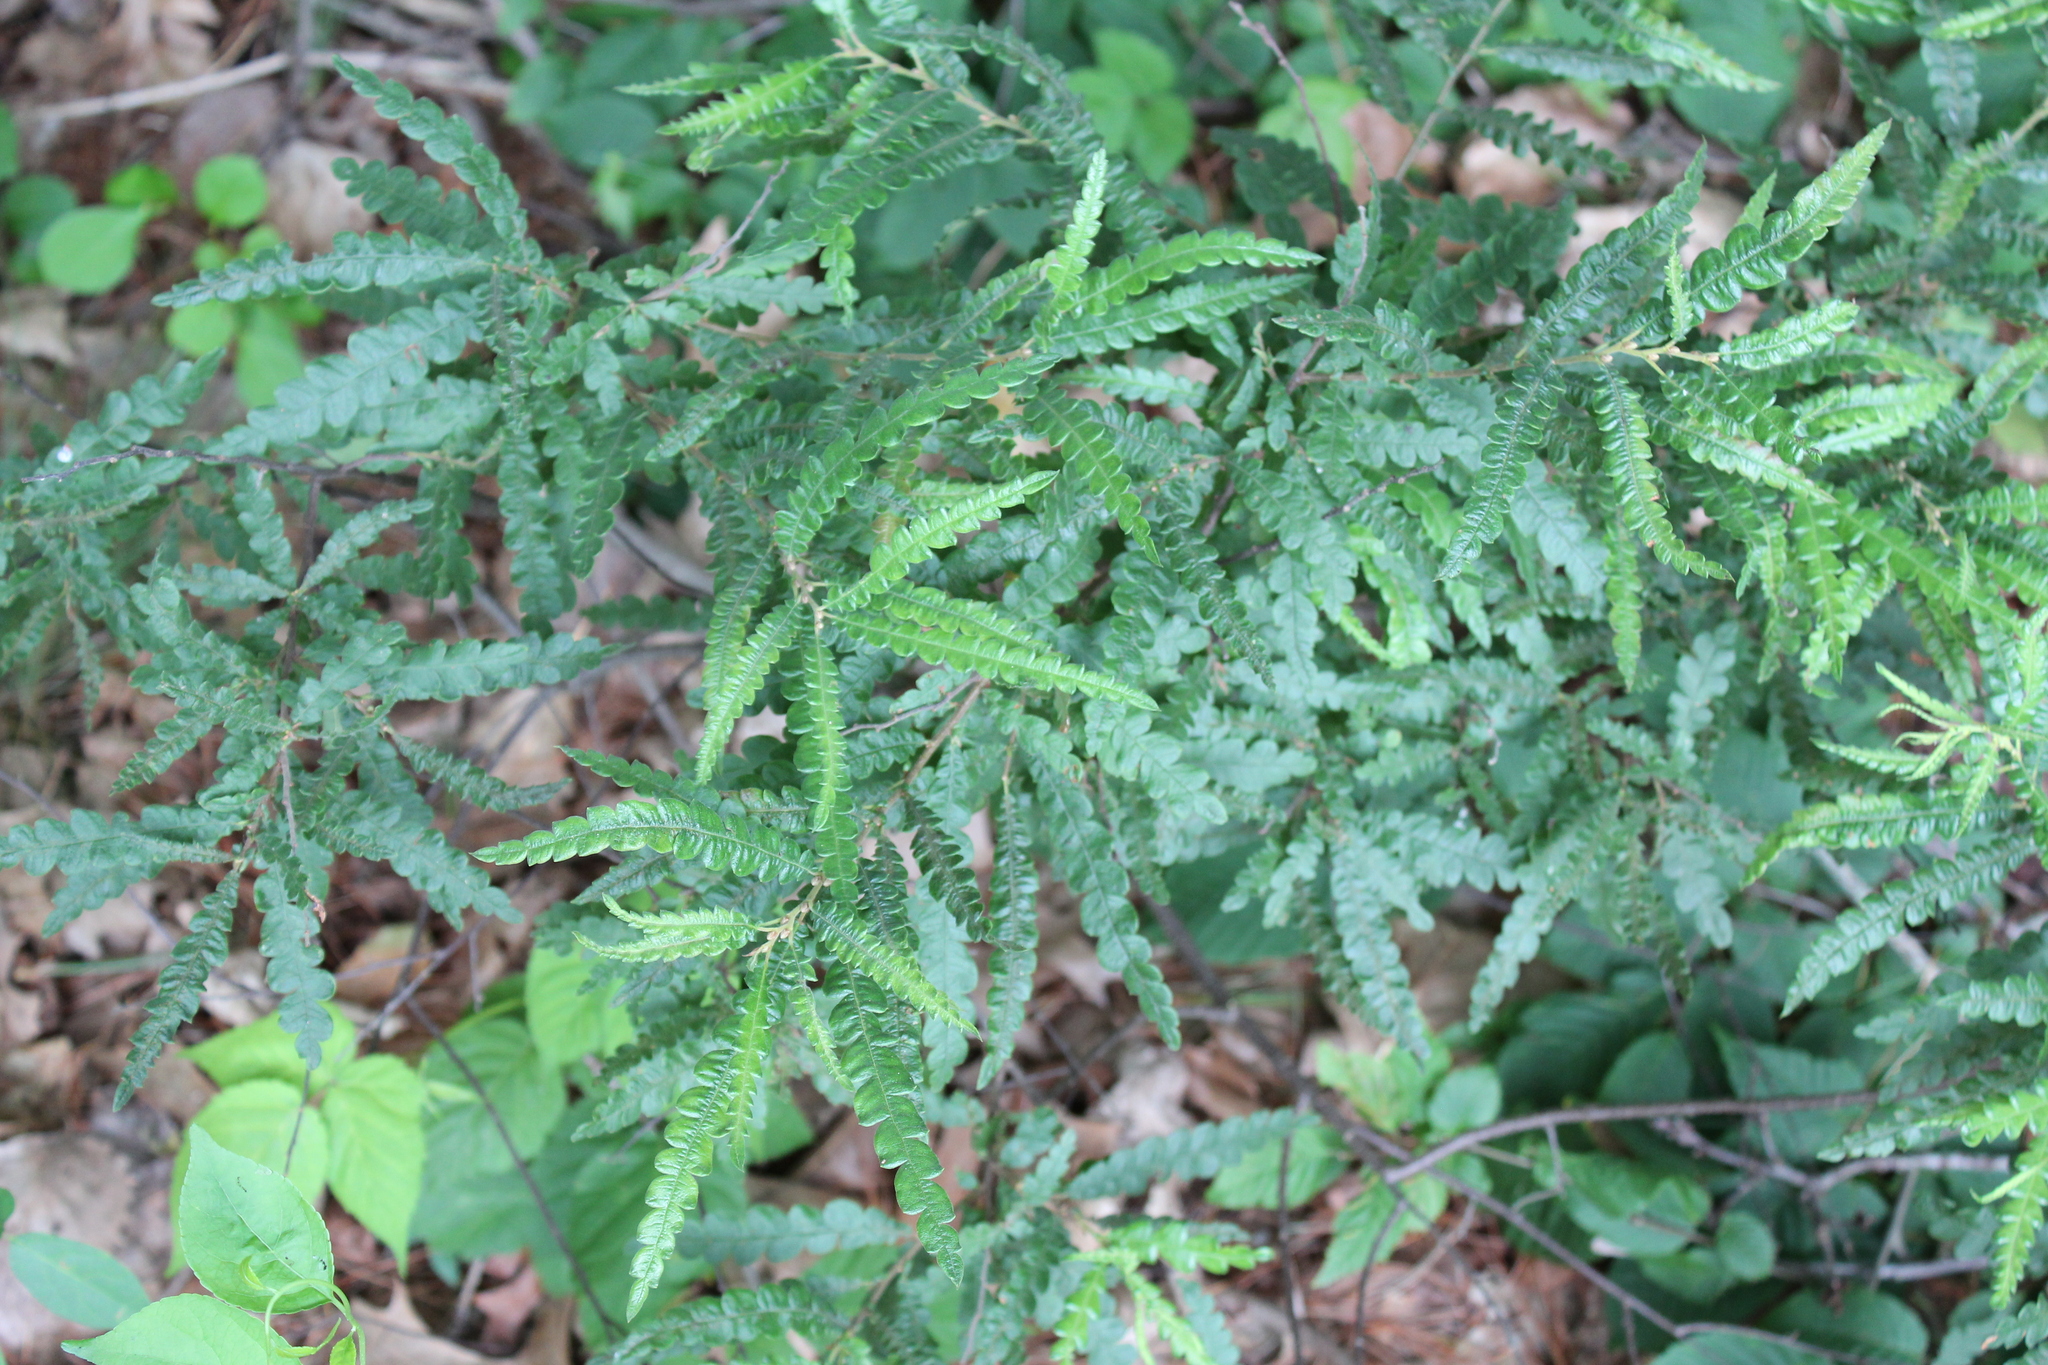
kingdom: Plantae
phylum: Tracheophyta
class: Magnoliopsida
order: Fagales
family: Myricaceae
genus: Comptonia
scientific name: Comptonia peregrina
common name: Sweet-fern
